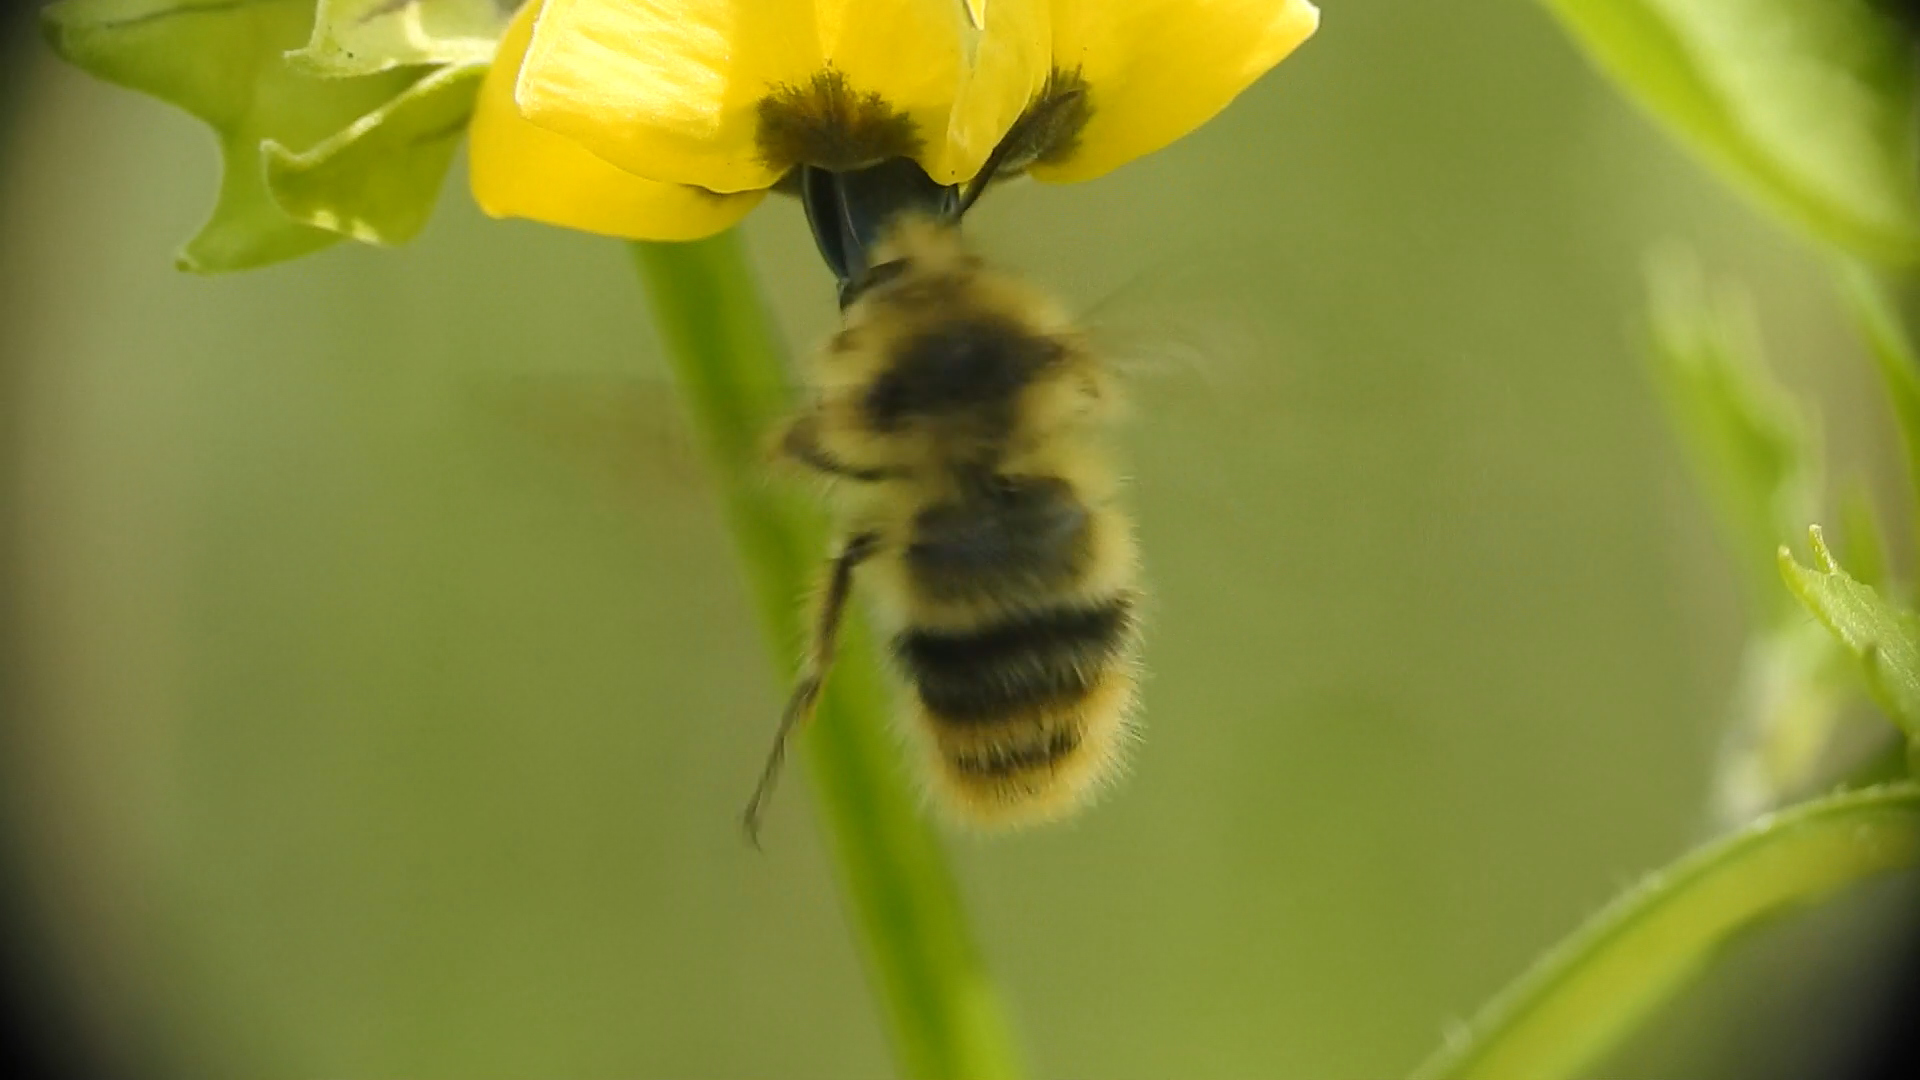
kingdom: Animalia
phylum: Arthropoda
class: Insecta
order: Hymenoptera
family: Apidae
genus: Bombus
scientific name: Bombus mixtus
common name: Fuzzy-horned bumble bee
